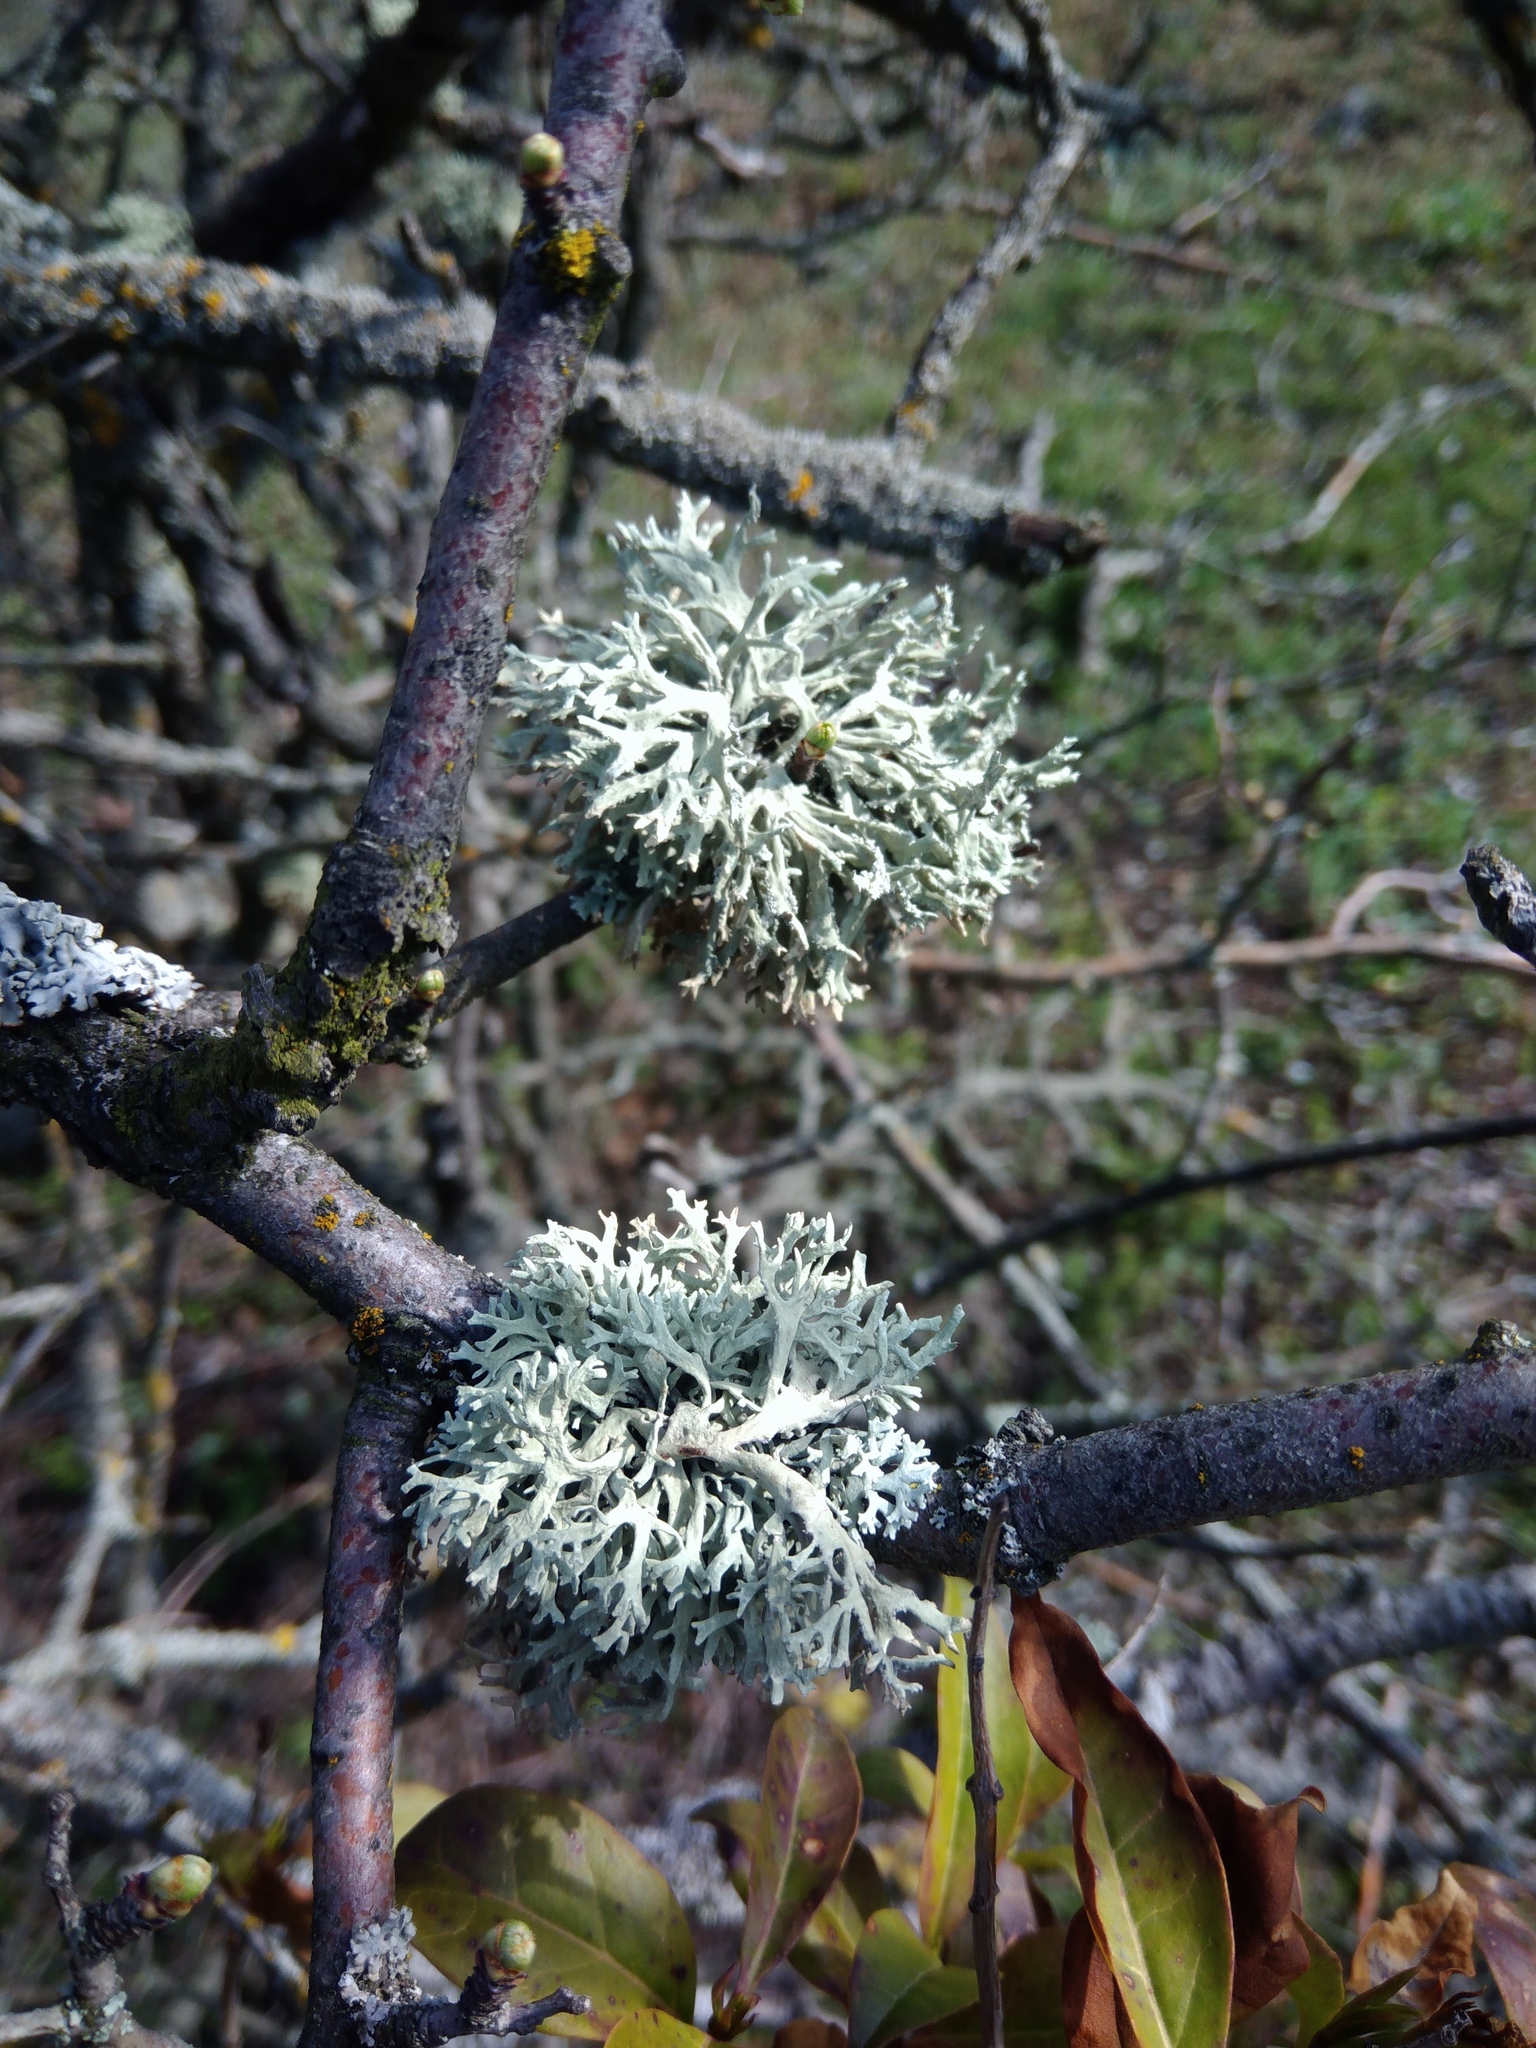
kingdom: Fungi
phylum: Ascomycota
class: Lecanoromycetes
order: Lecanorales
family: Parmeliaceae
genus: Evernia
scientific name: Evernia prunastri
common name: Oak moss
